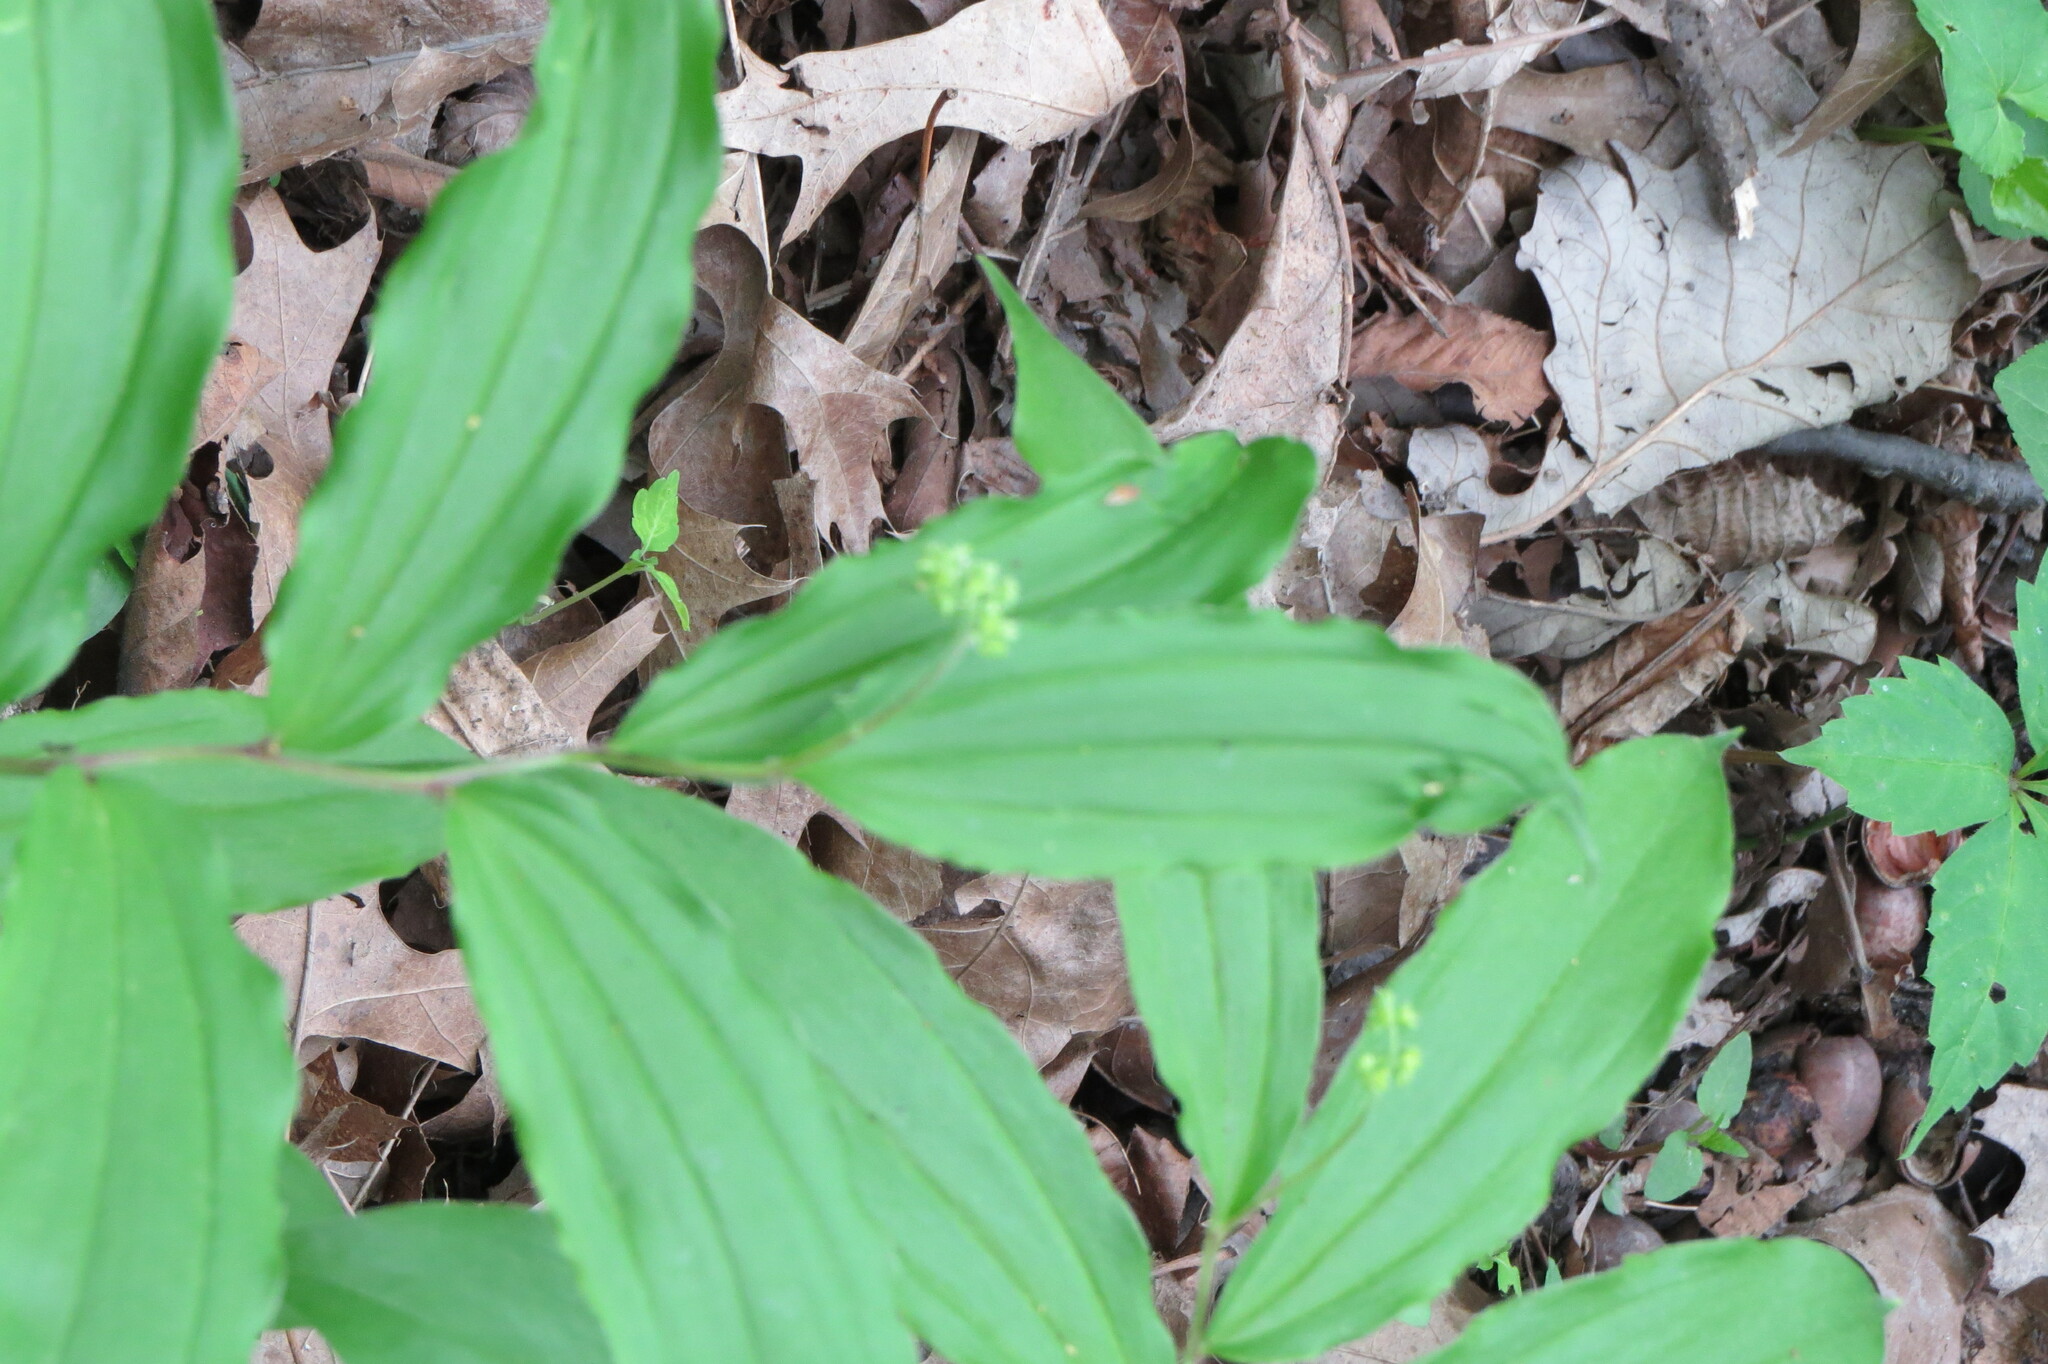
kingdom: Plantae
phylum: Tracheophyta
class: Liliopsida
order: Asparagales
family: Asparagaceae
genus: Maianthemum
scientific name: Maianthemum racemosum
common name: False spikenard
